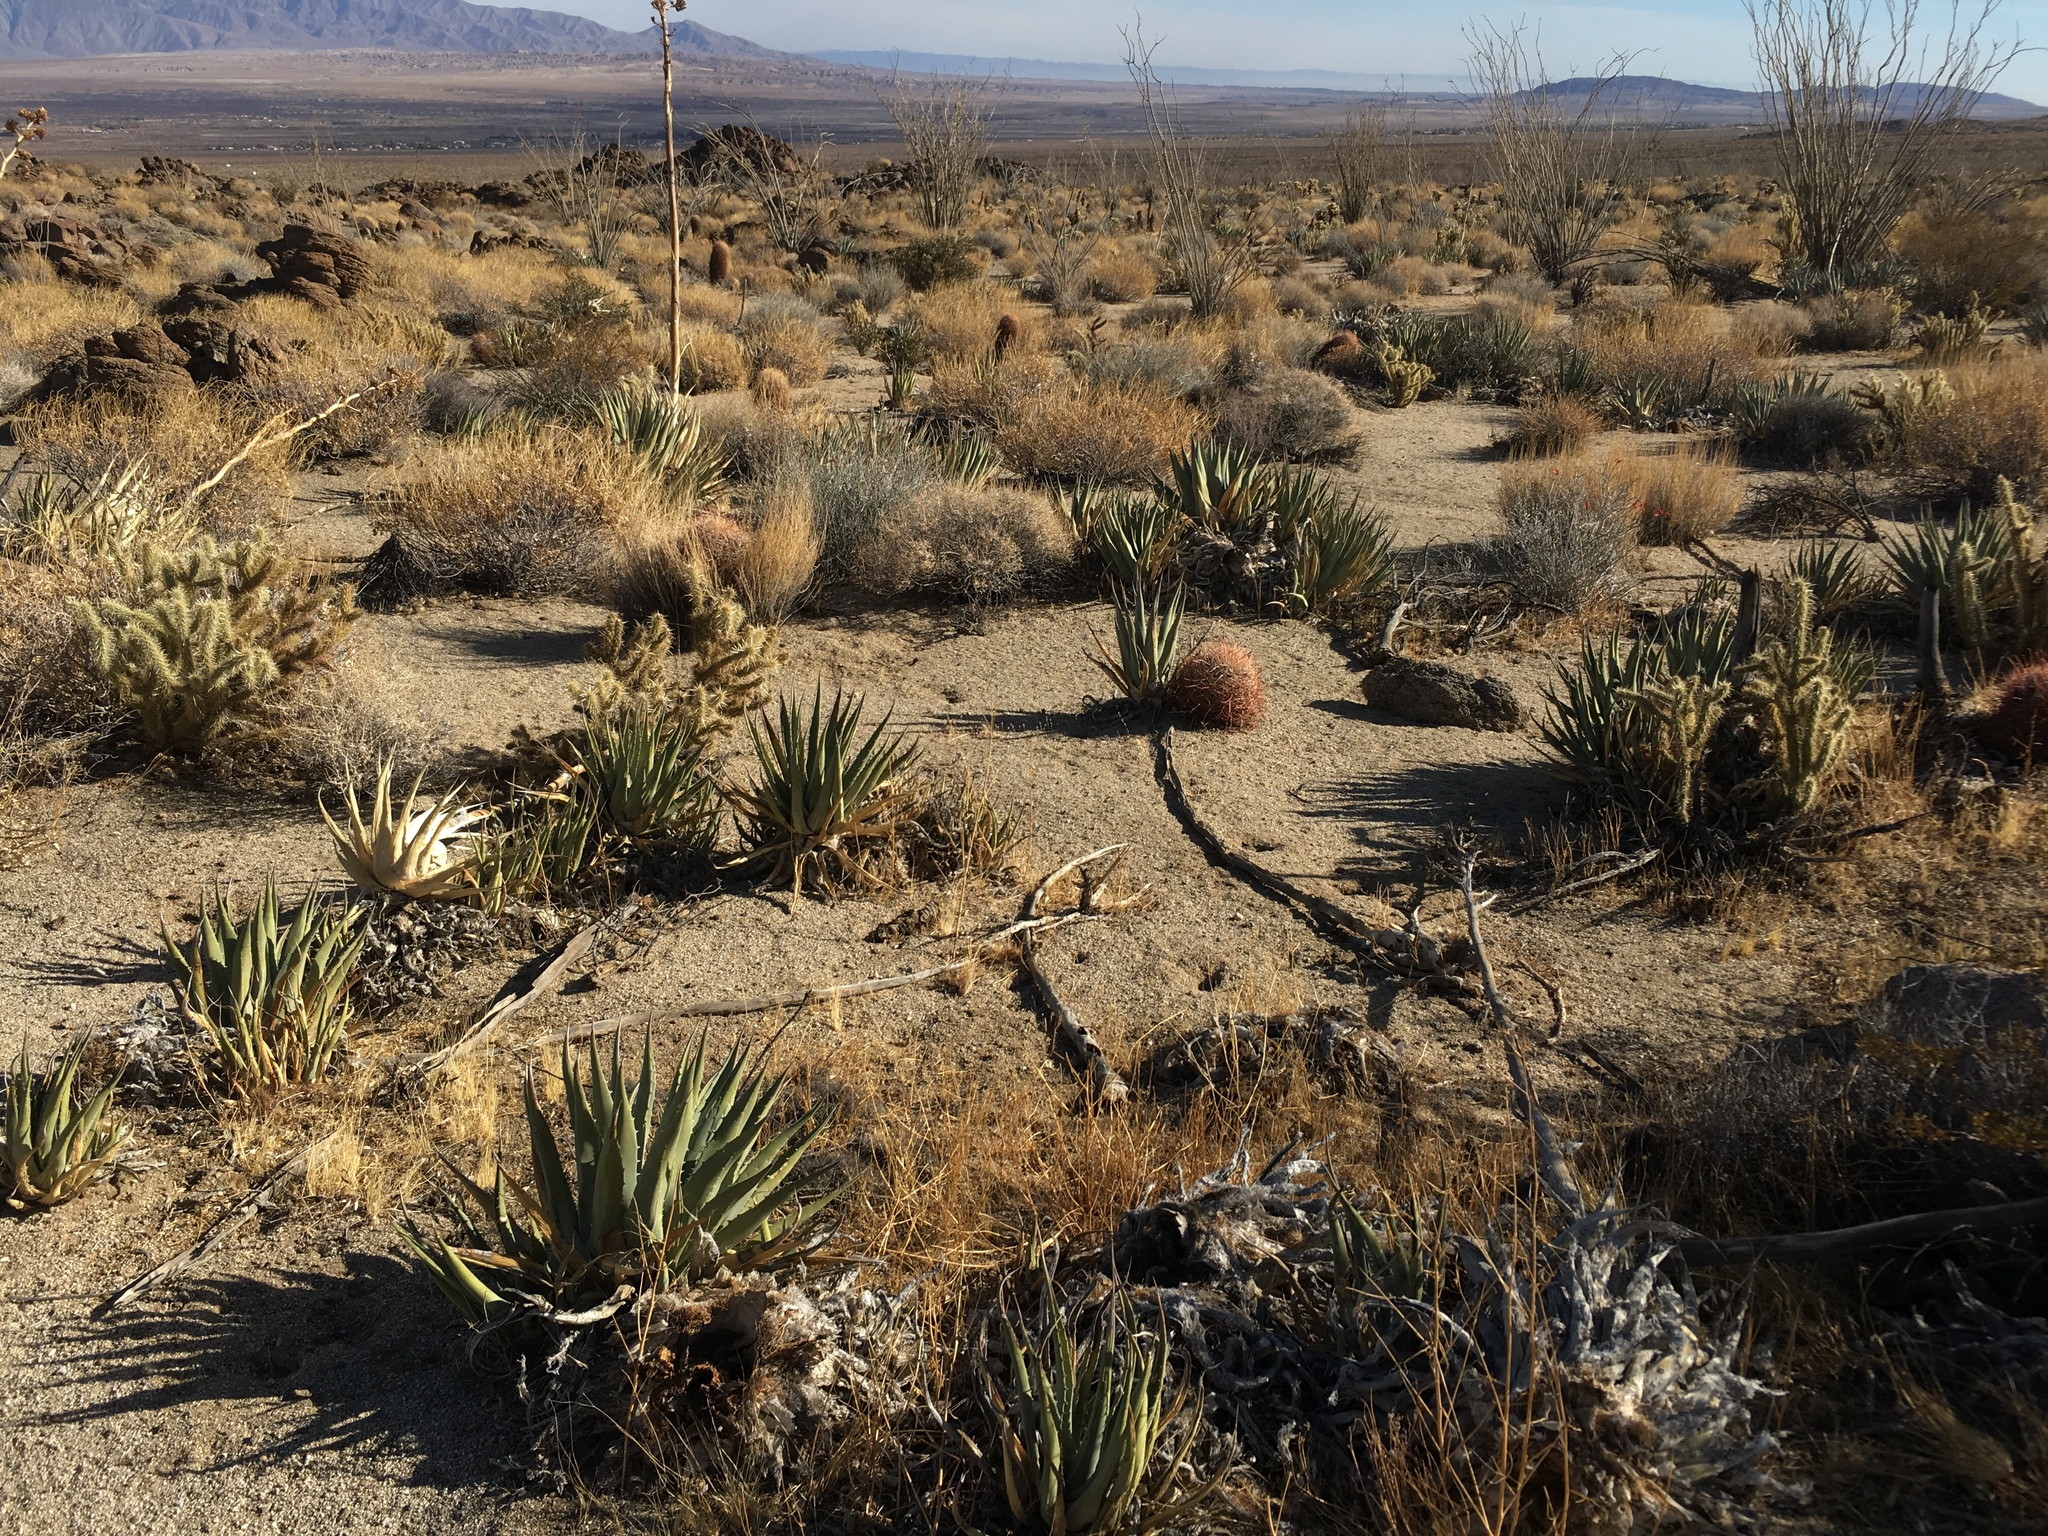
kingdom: Plantae
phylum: Tracheophyta
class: Liliopsida
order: Asparagales
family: Asparagaceae
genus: Agave
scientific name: Agave deserti
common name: Desert agave
